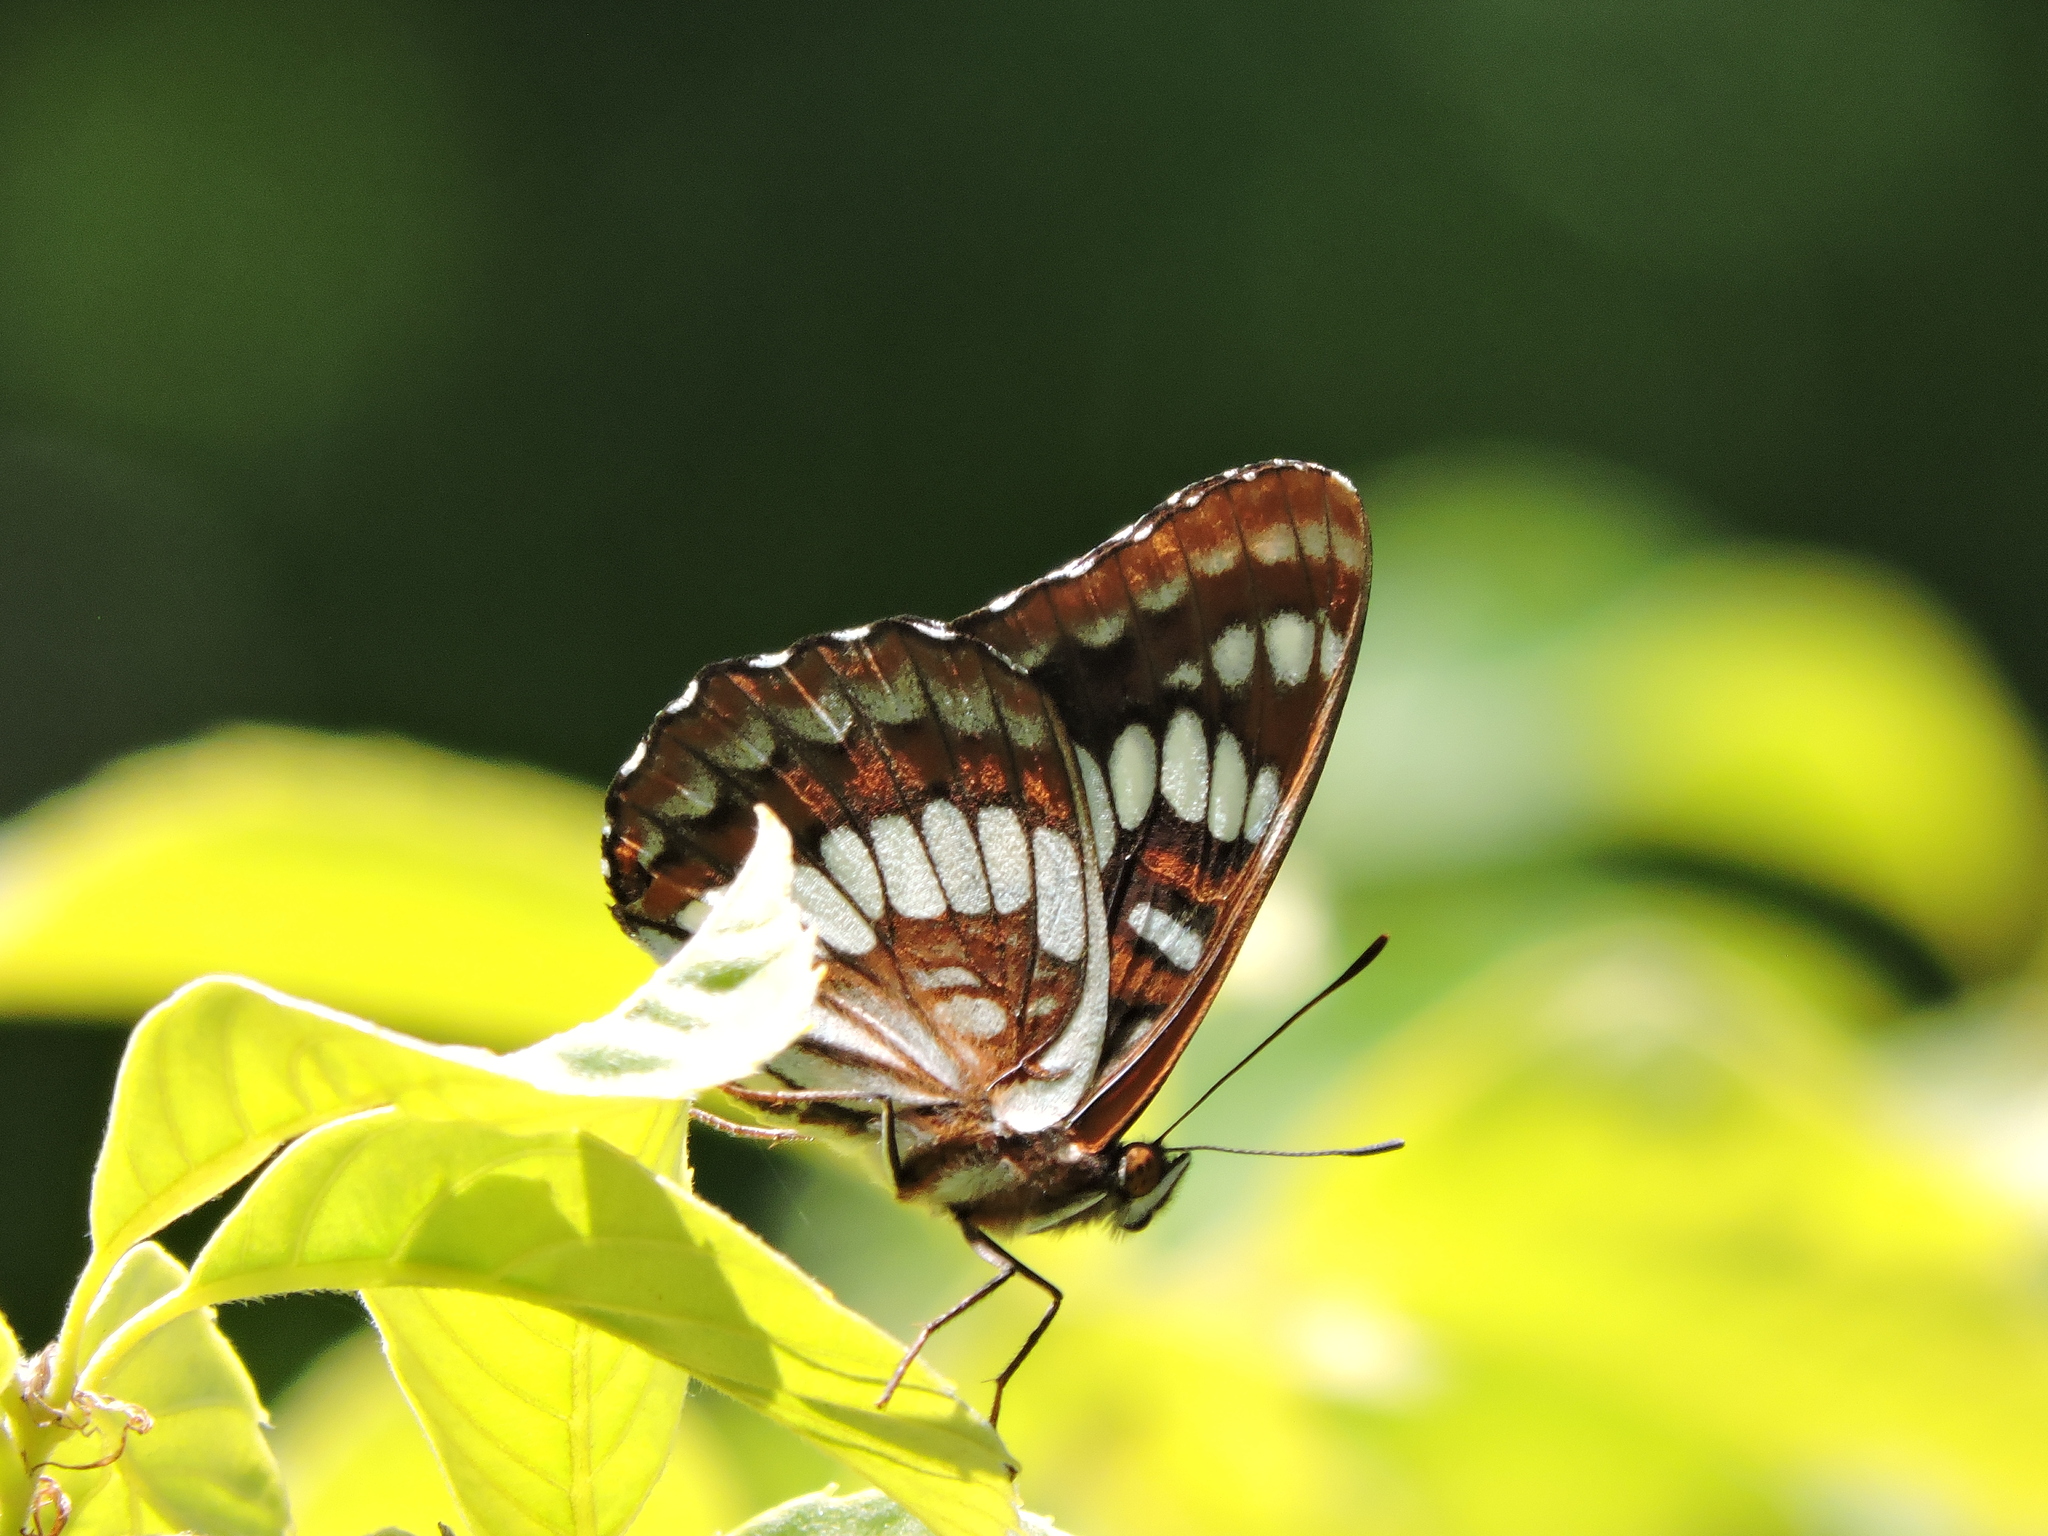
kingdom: Animalia
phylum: Arthropoda
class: Insecta
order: Lepidoptera
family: Nymphalidae
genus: Limenitis
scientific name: Limenitis lorquini
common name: Lorquin's admiral
